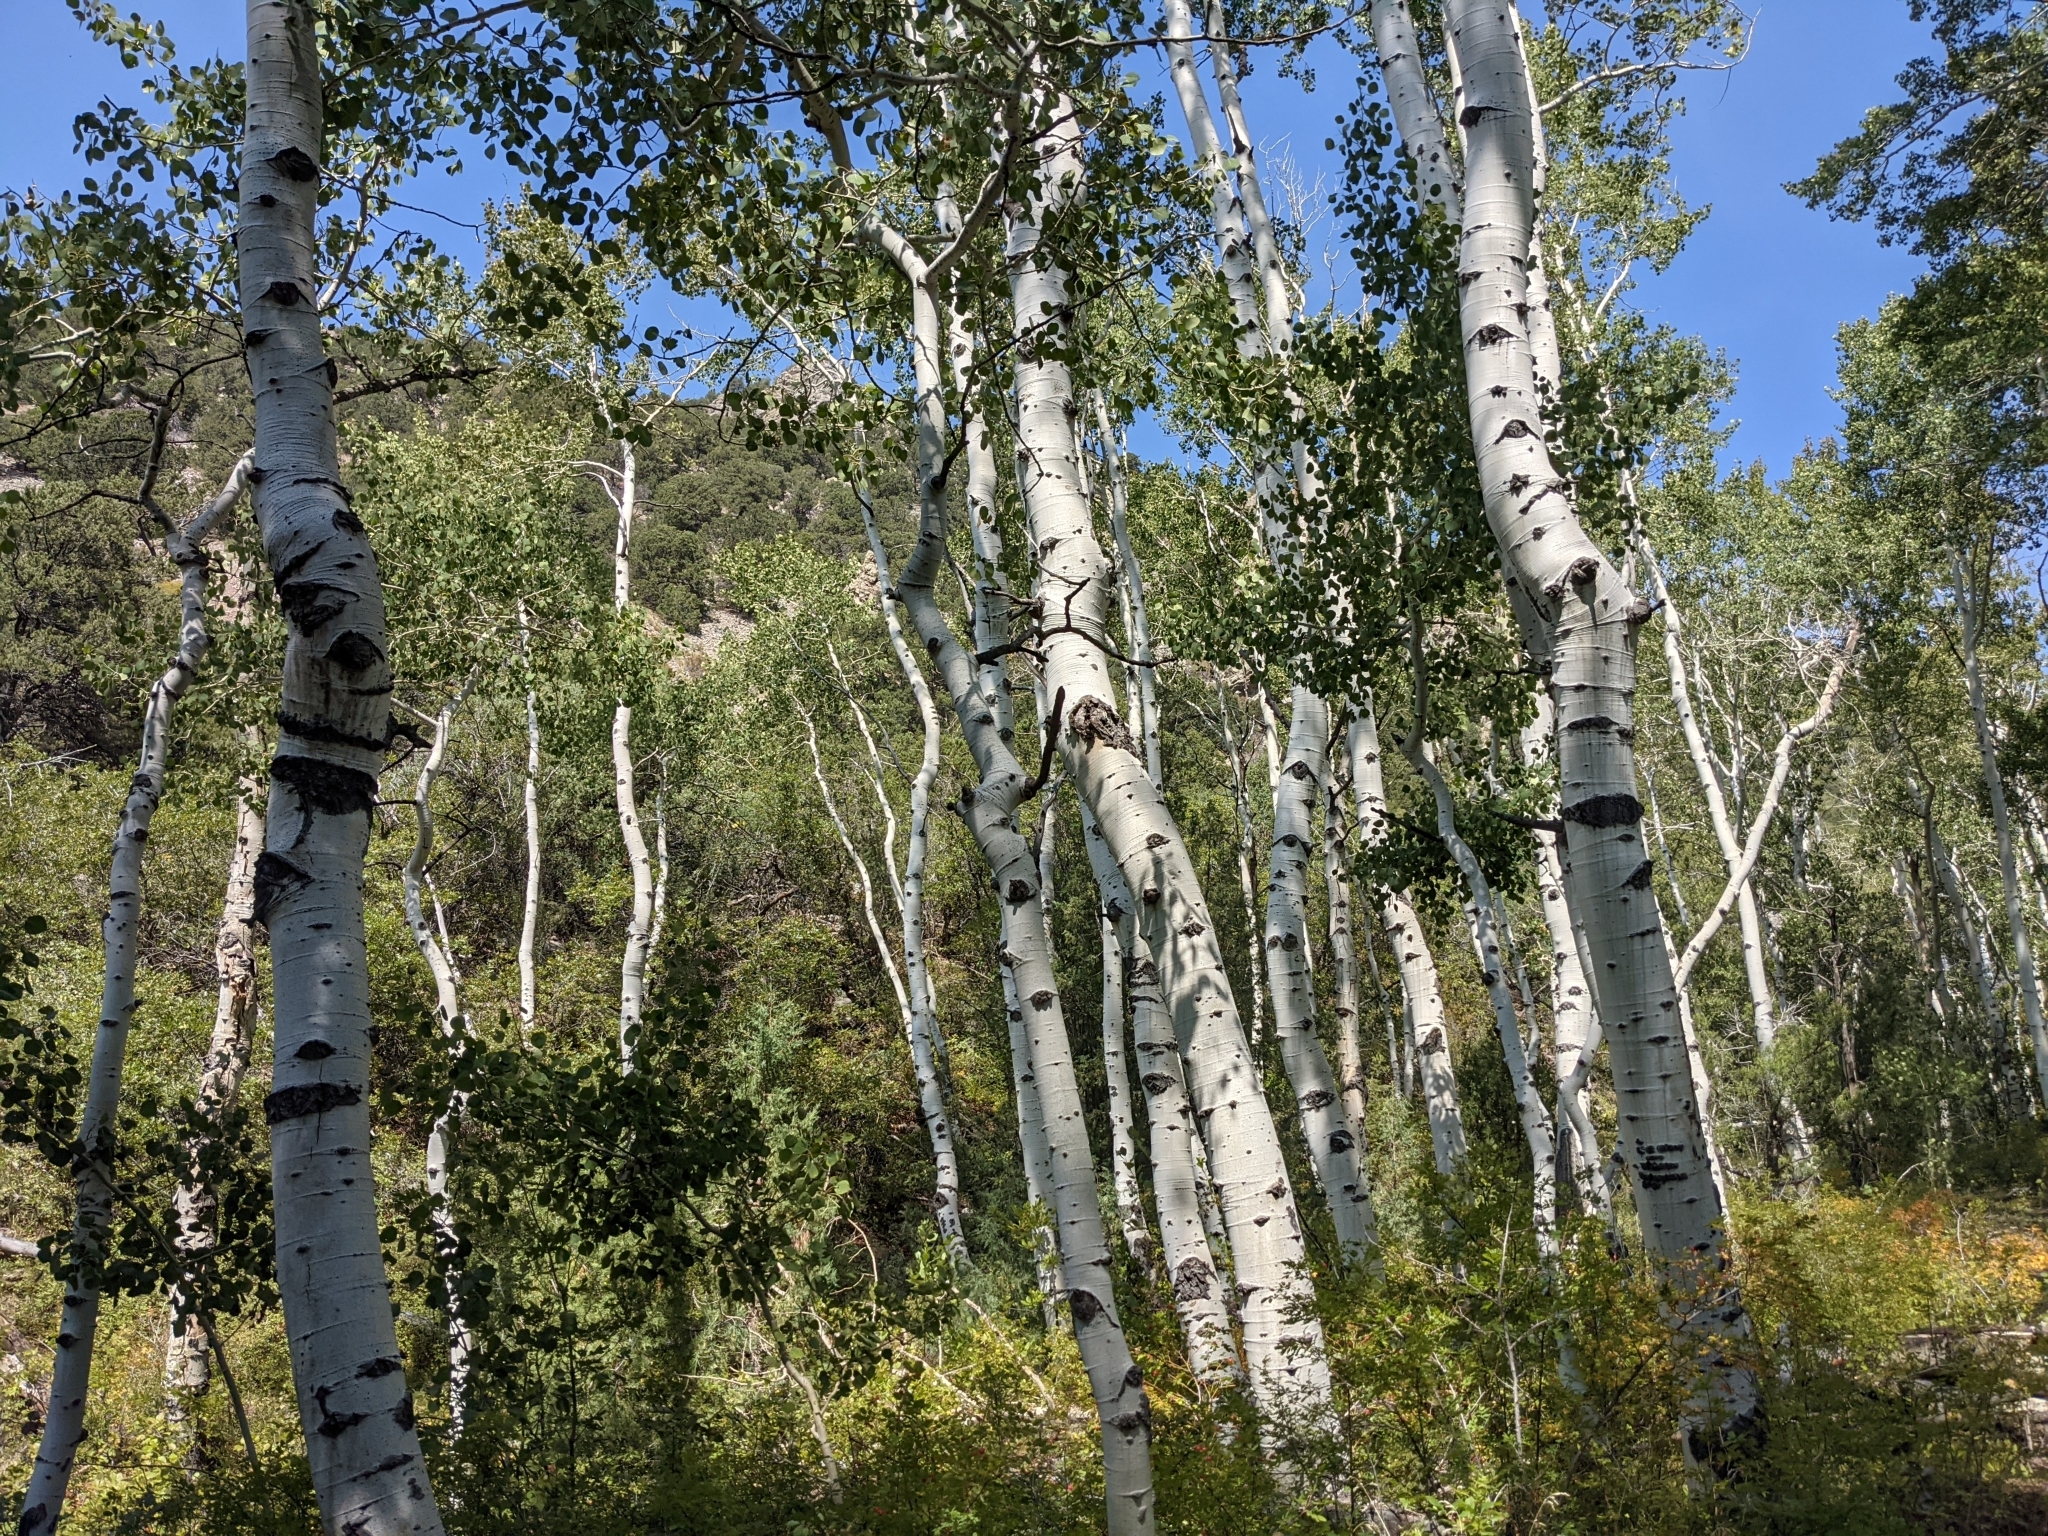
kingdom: Plantae
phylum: Tracheophyta
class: Magnoliopsida
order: Malpighiales
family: Salicaceae
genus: Populus
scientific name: Populus tremuloides
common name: Quaking aspen
